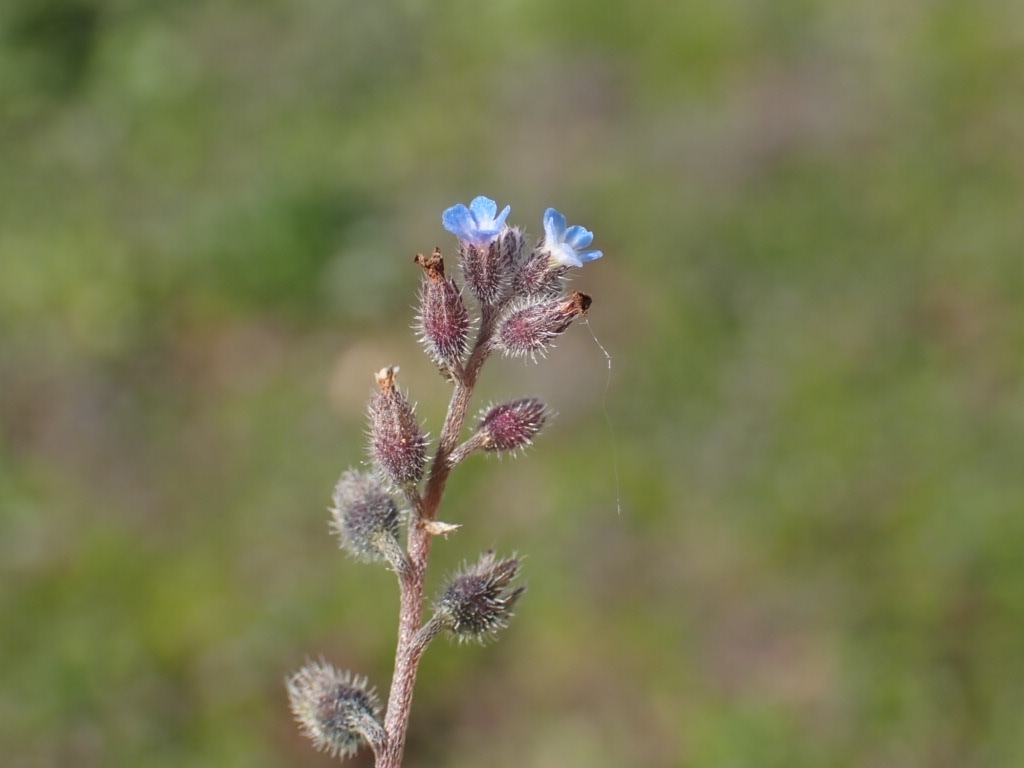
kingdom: Plantae
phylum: Tracheophyta
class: Magnoliopsida
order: Boraginales
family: Boraginaceae
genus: Myosotis
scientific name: Myosotis ramosissima
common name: Early forget-me-not
